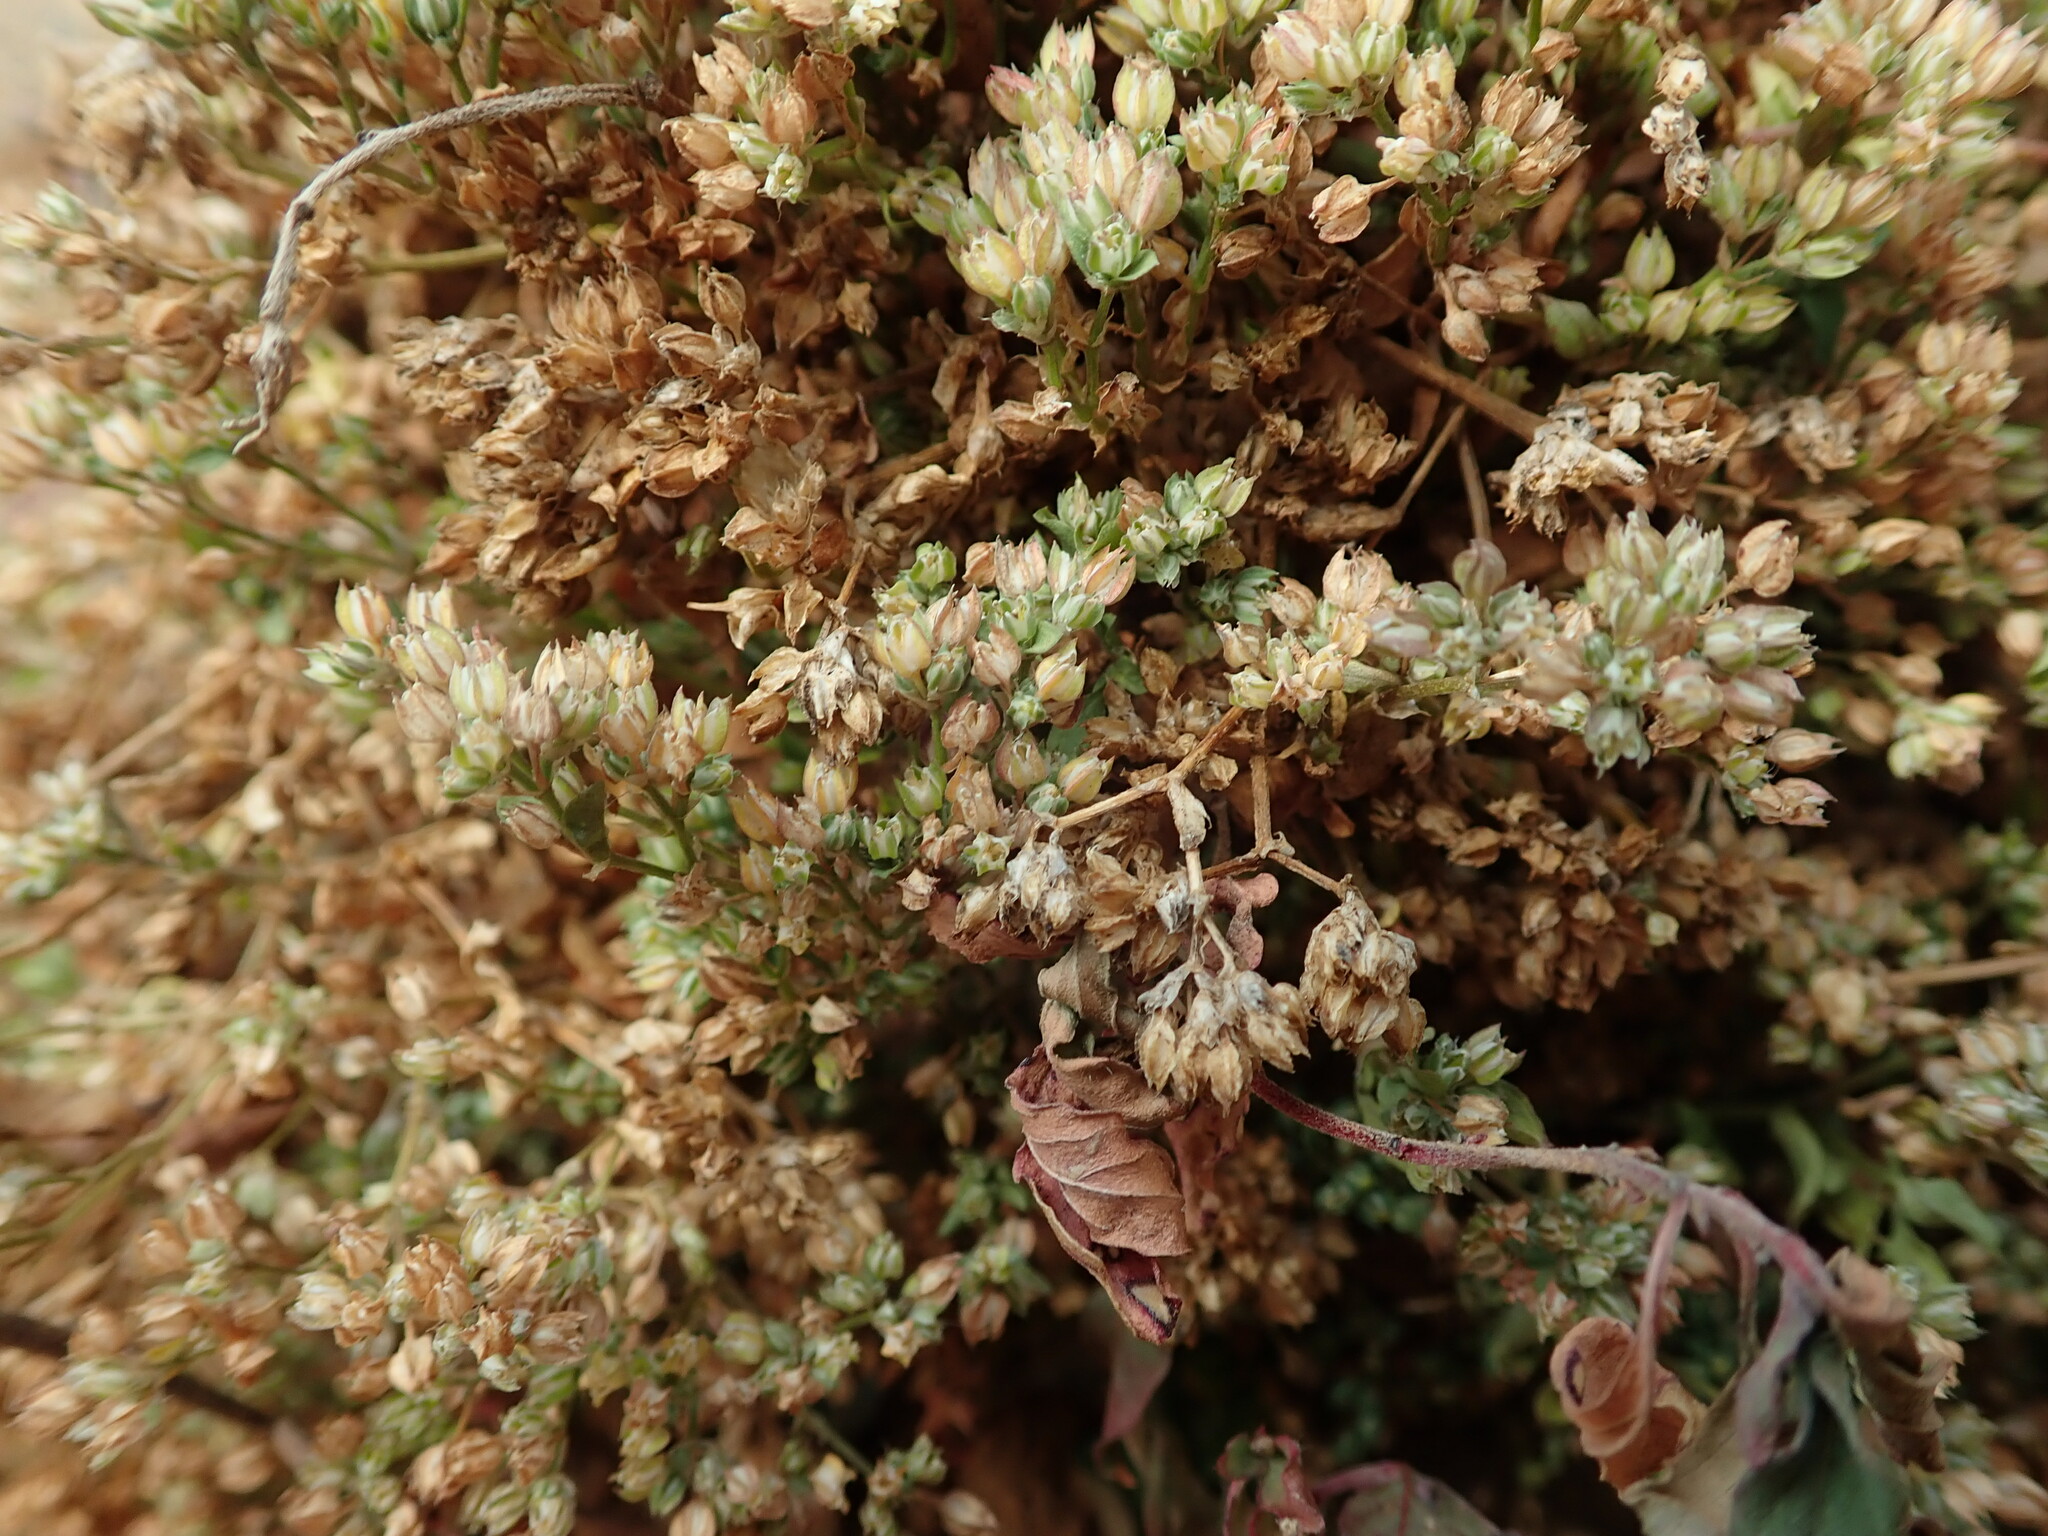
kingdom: Plantae
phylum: Tracheophyta
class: Magnoliopsida
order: Caryophyllales
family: Caryophyllaceae
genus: Polycarpon
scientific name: Polycarpon tetraphyllum
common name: Four-leaved all-seed
